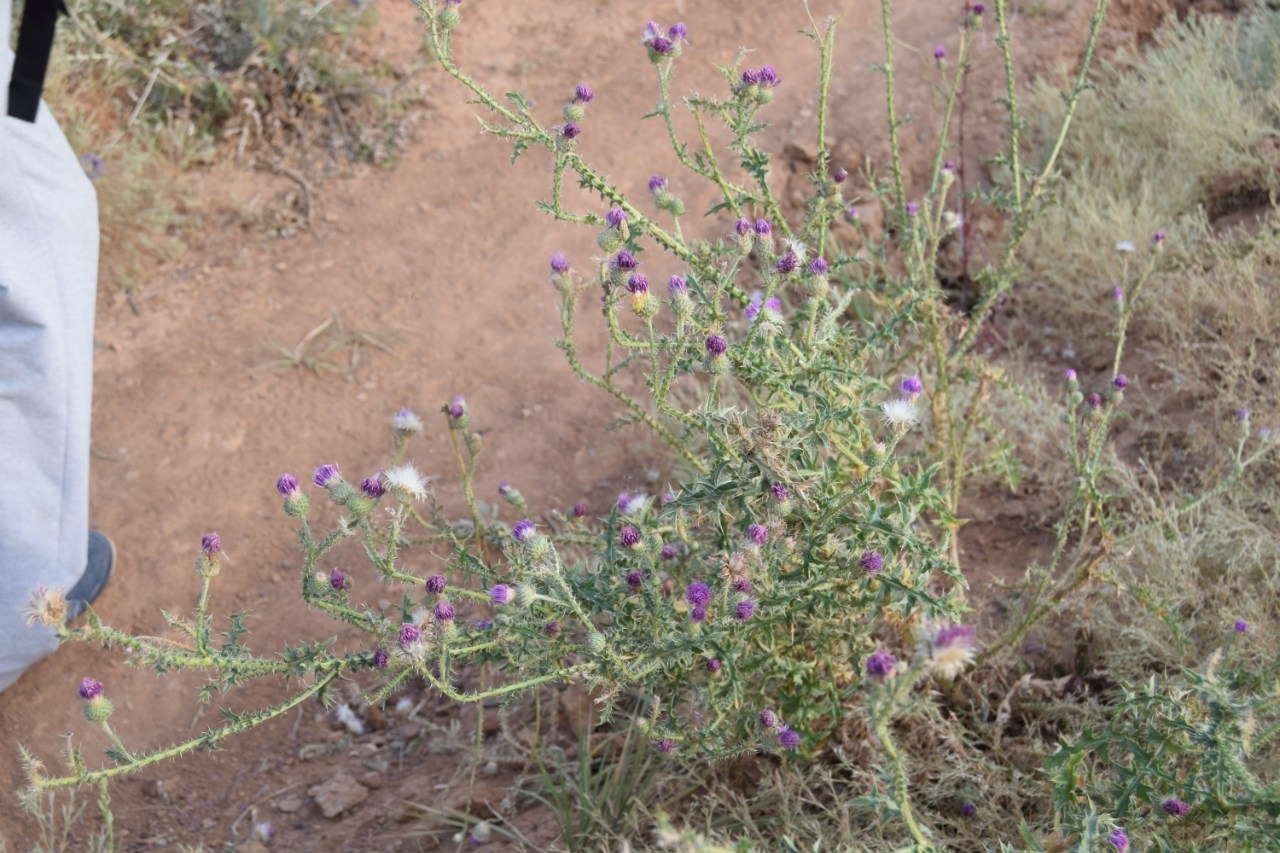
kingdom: Plantae
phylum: Tracheophyta
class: Magnoliopsida
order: Asterales
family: Asteraceae
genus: Carduus
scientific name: Carduus acanthoides
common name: Plumeless thistle
